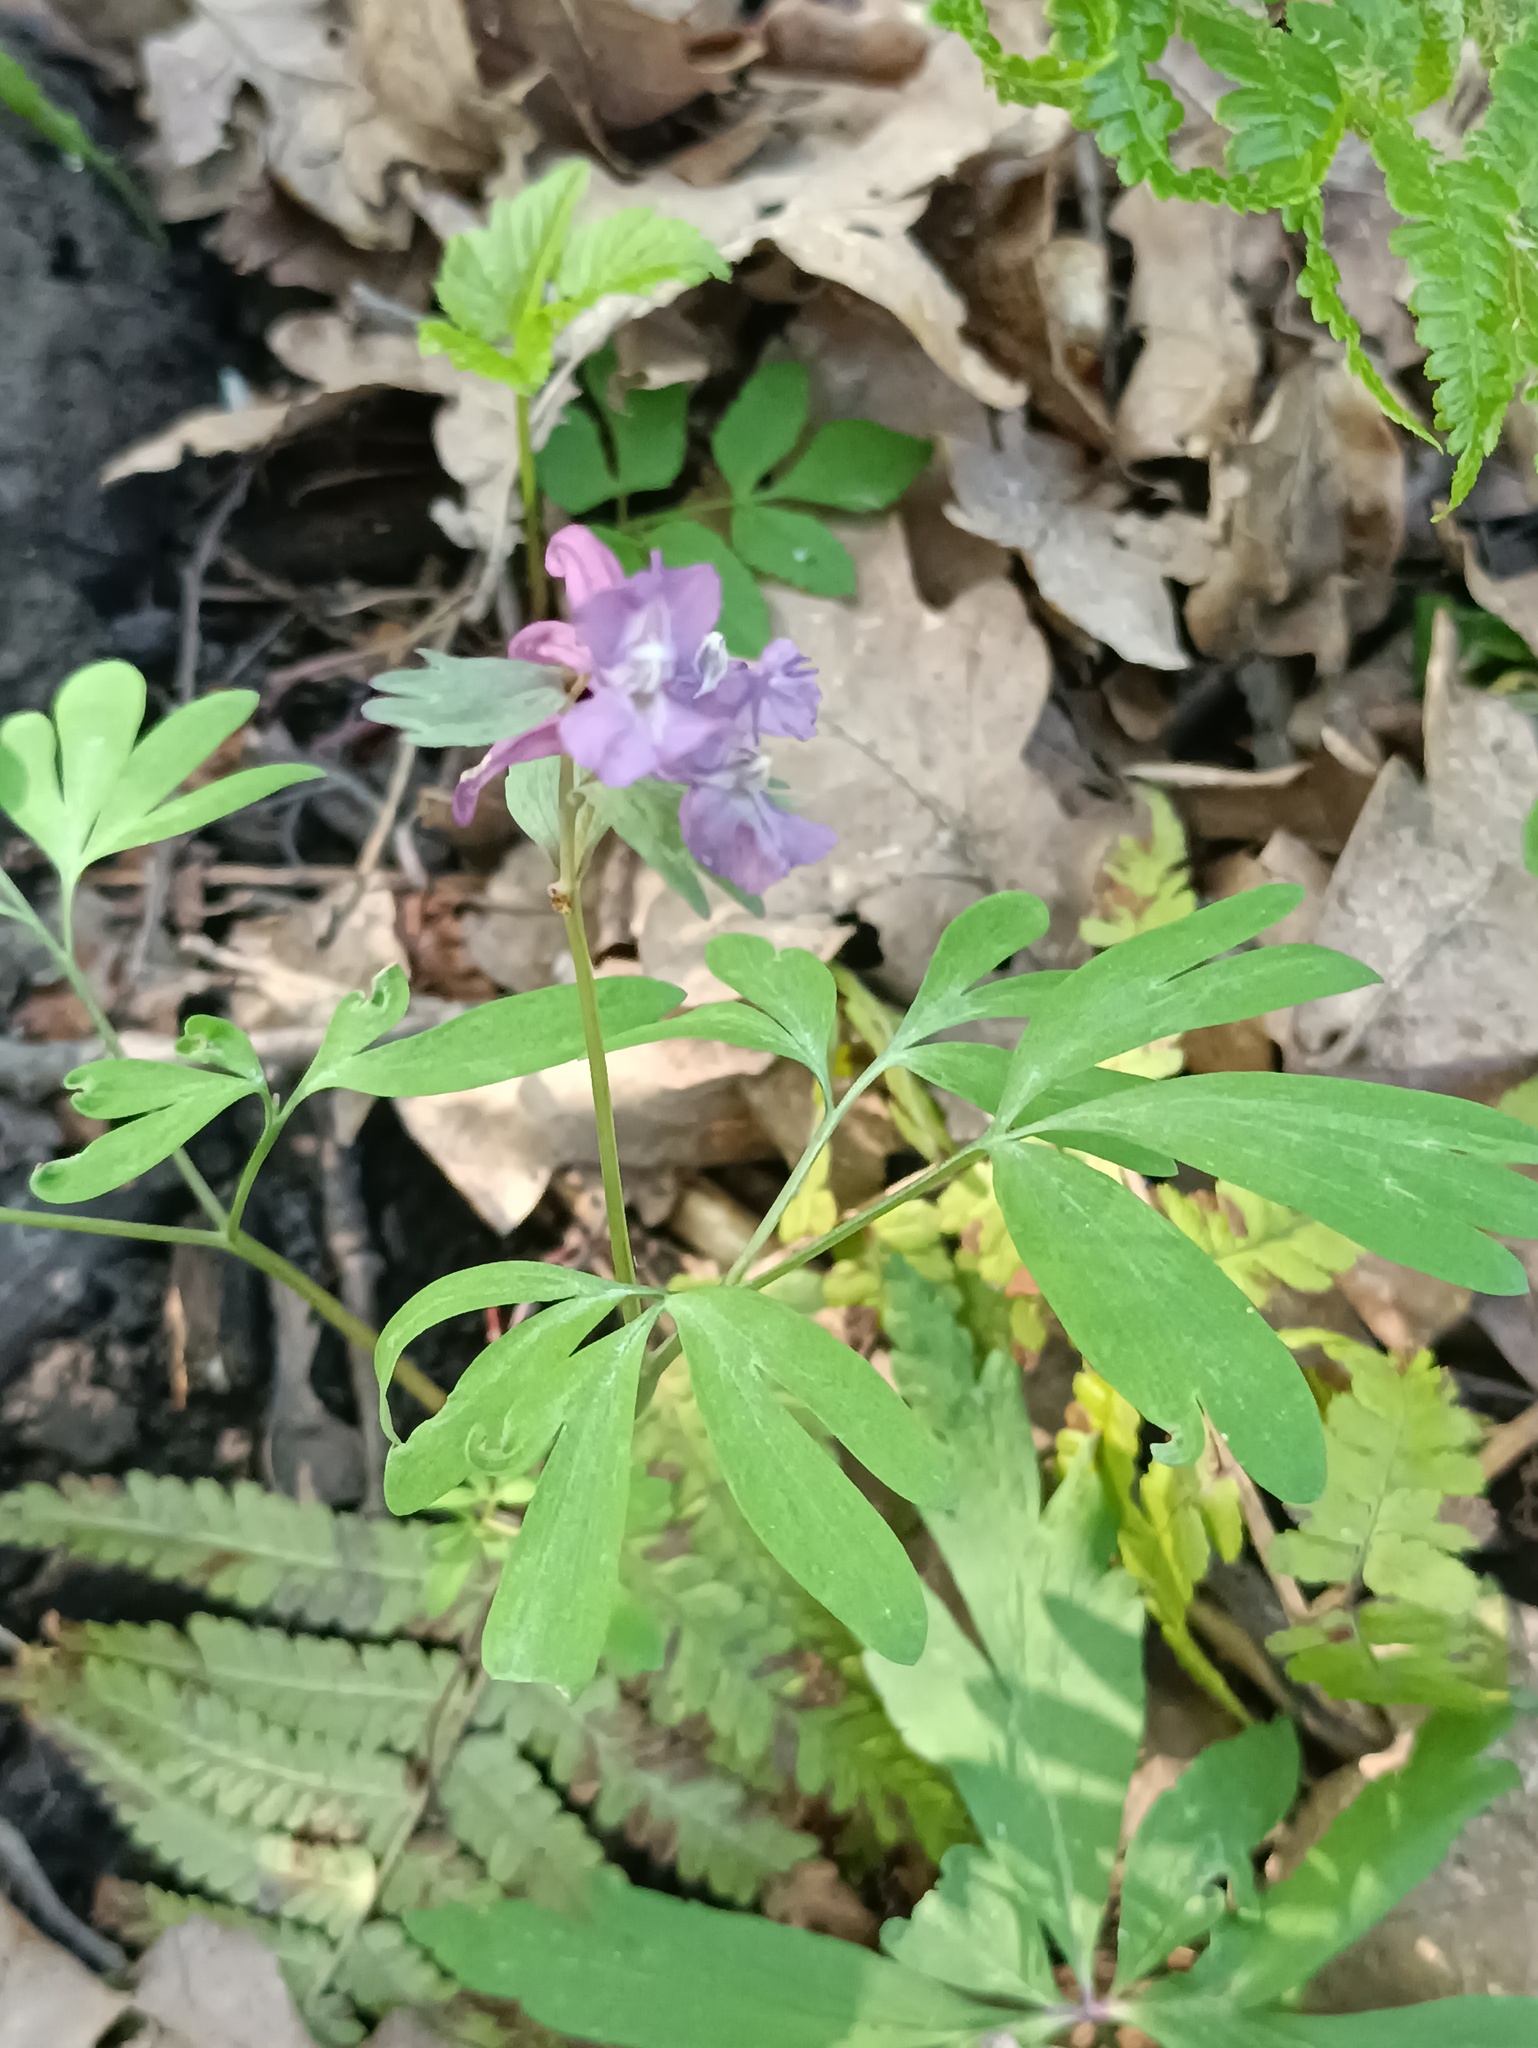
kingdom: Plantae
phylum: Tracheophyta
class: Magnoliopsida
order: Ranunculales
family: Papaveraceae
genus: Corydalis
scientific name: Corydalis solida
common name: Bird-in-a-bush
